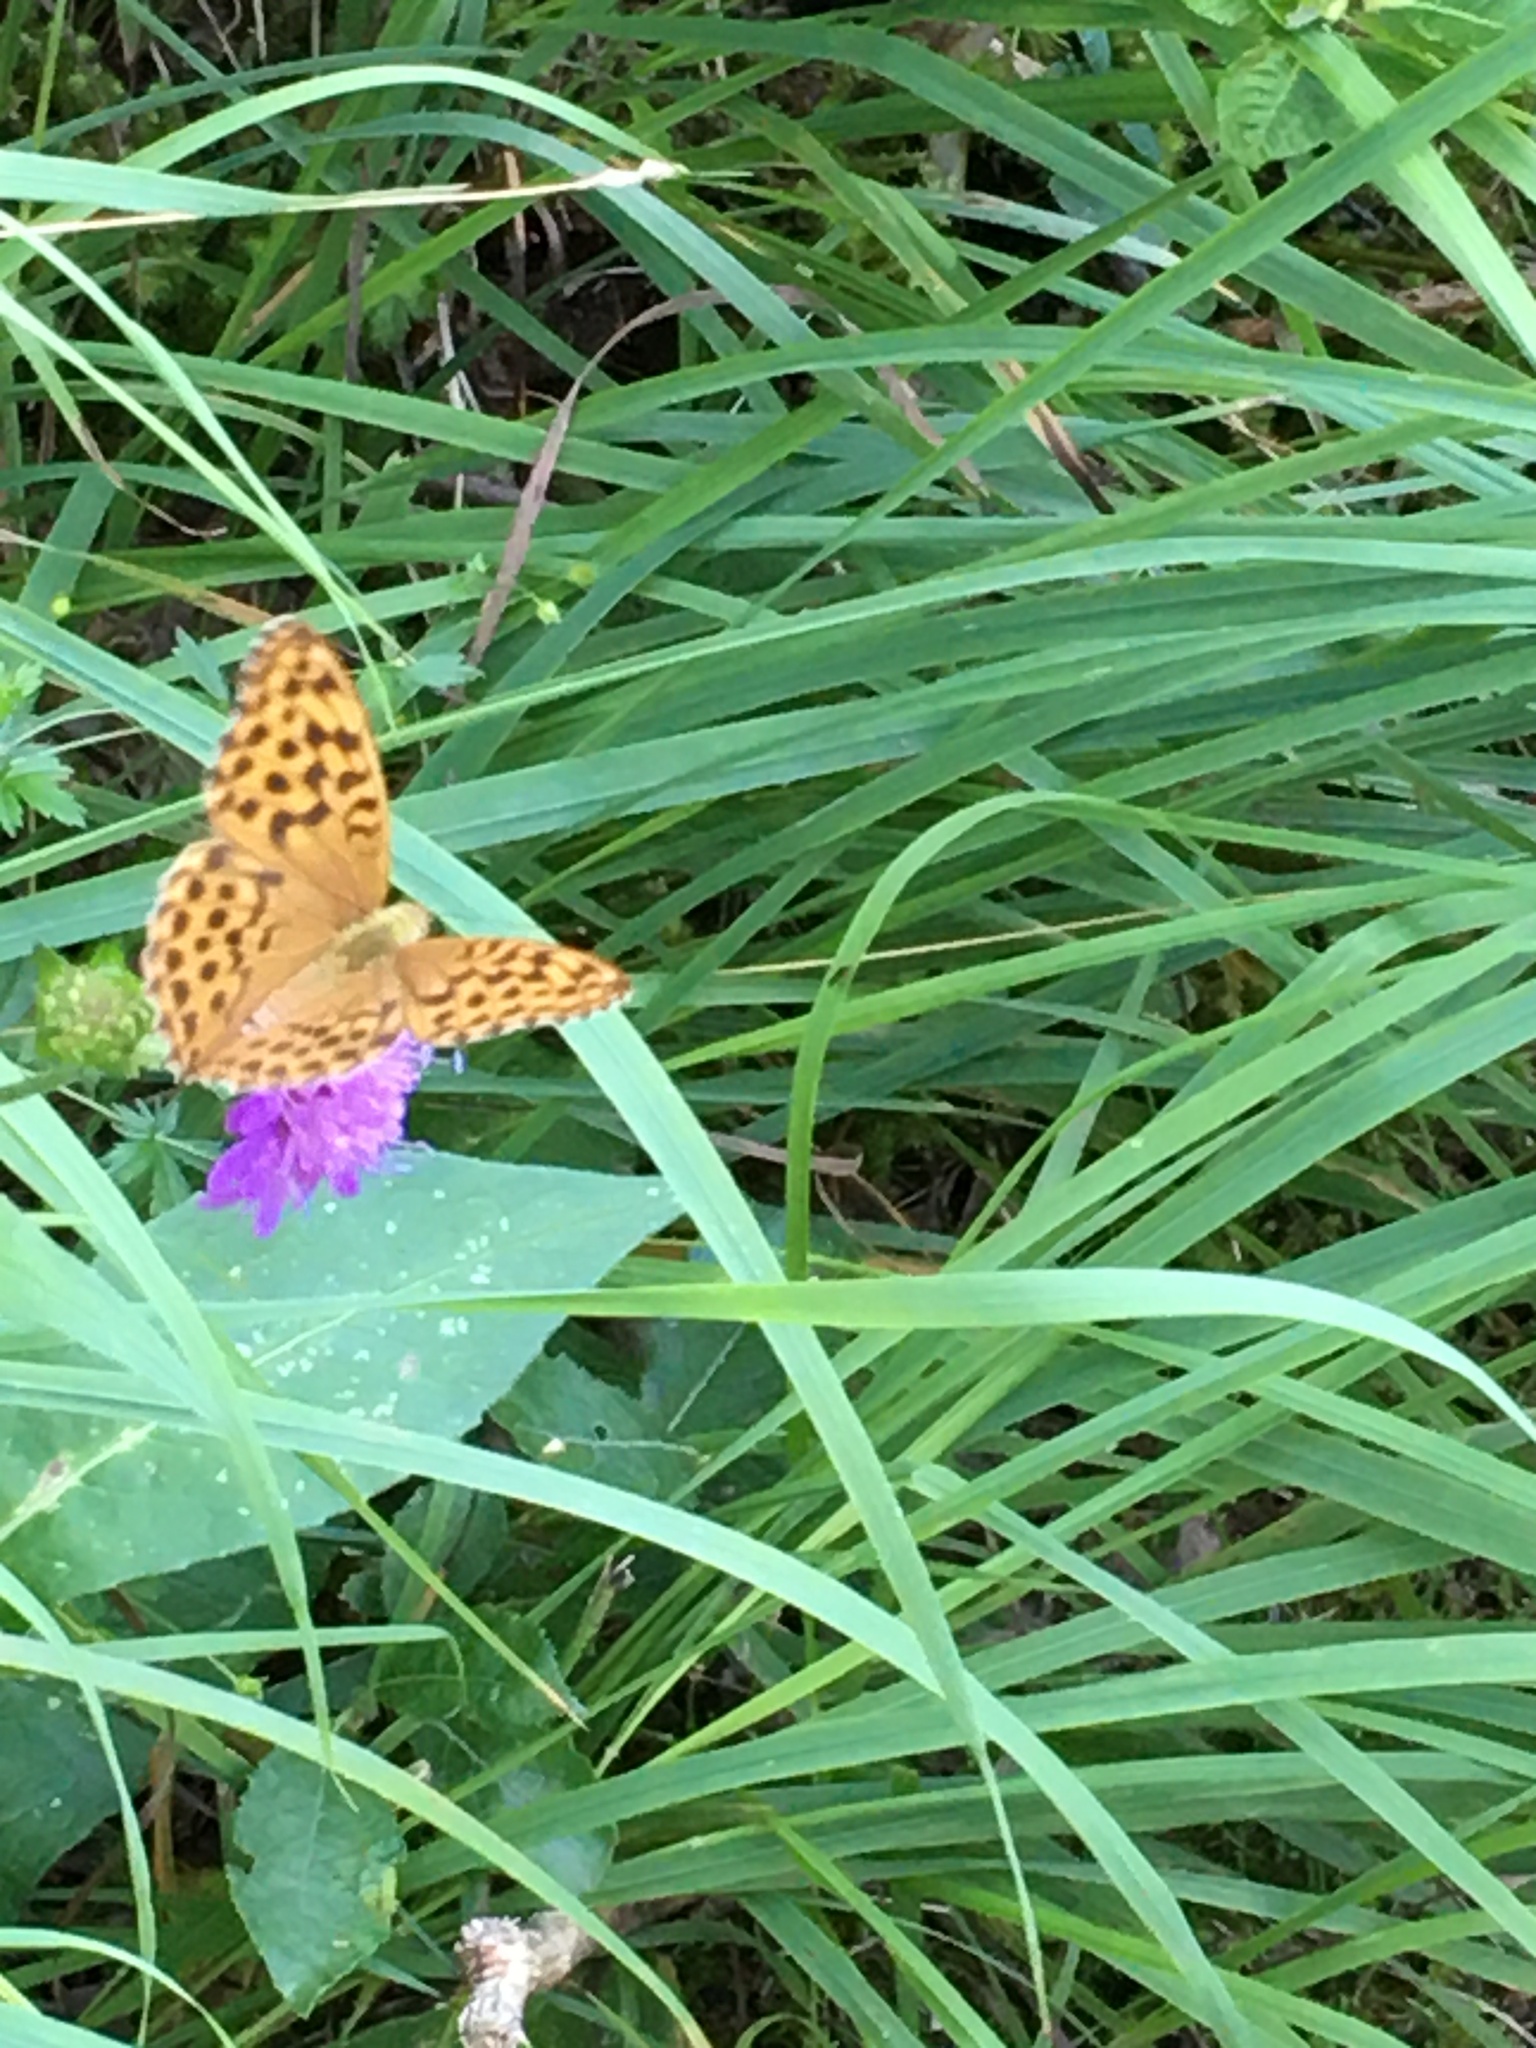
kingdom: Animalia
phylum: Arthropoda
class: Insecta
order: Lepidoptera
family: Nymphalidae
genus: Argynnis
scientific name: Argynnis paphia
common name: Silver-washed fritillary
